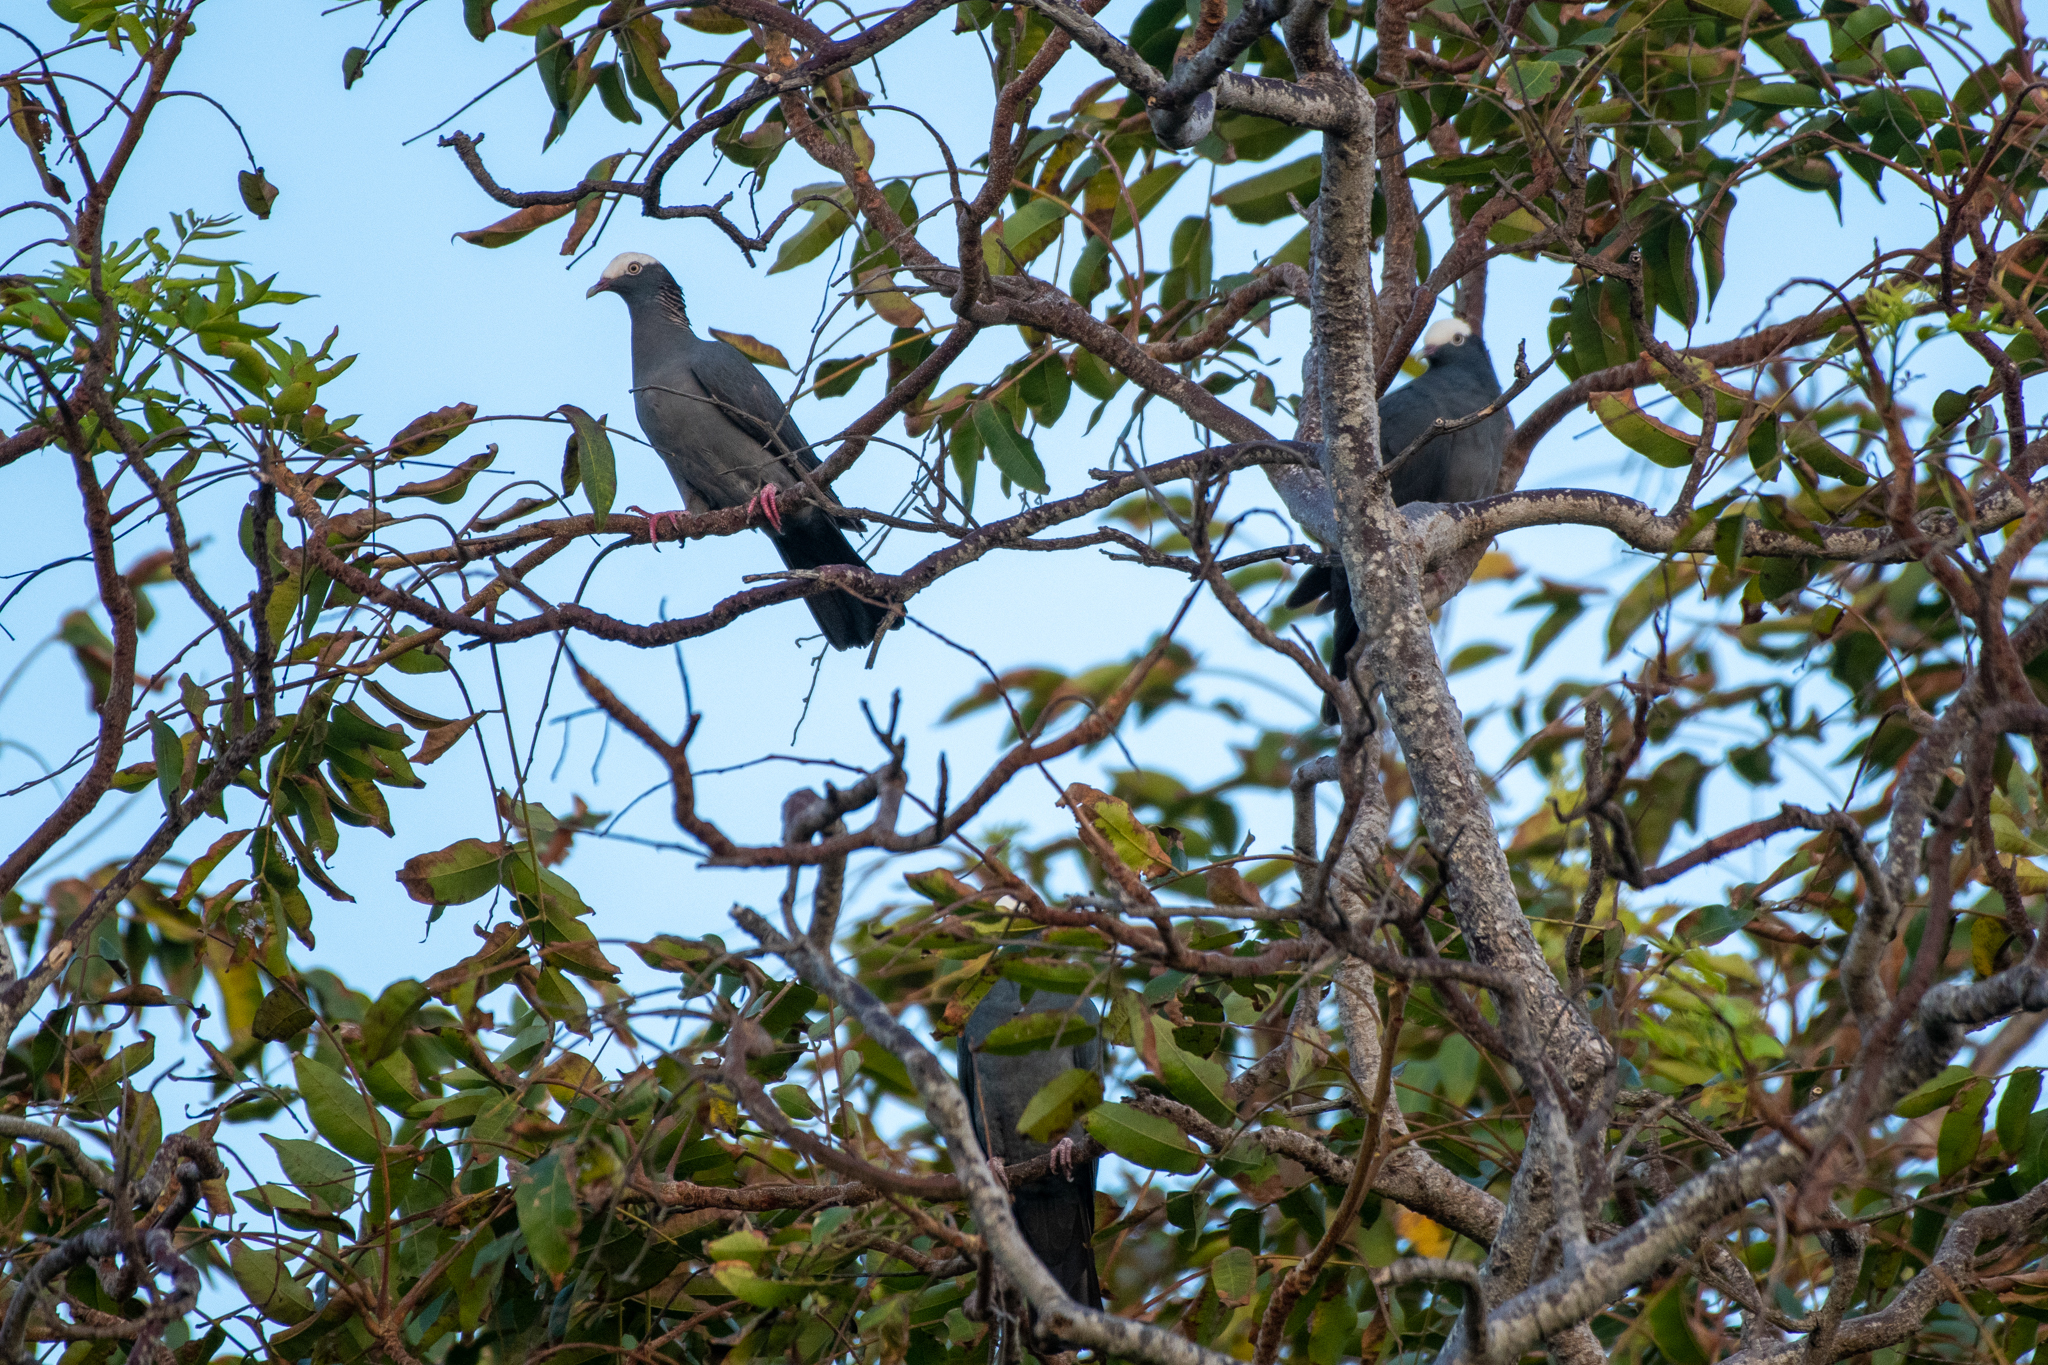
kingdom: Animalia
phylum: Chordata
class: Aves
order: Columbiformes
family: Columbidae
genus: Patagioenas
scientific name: Patagioenas leucocephala
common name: White-crowned pigeon
